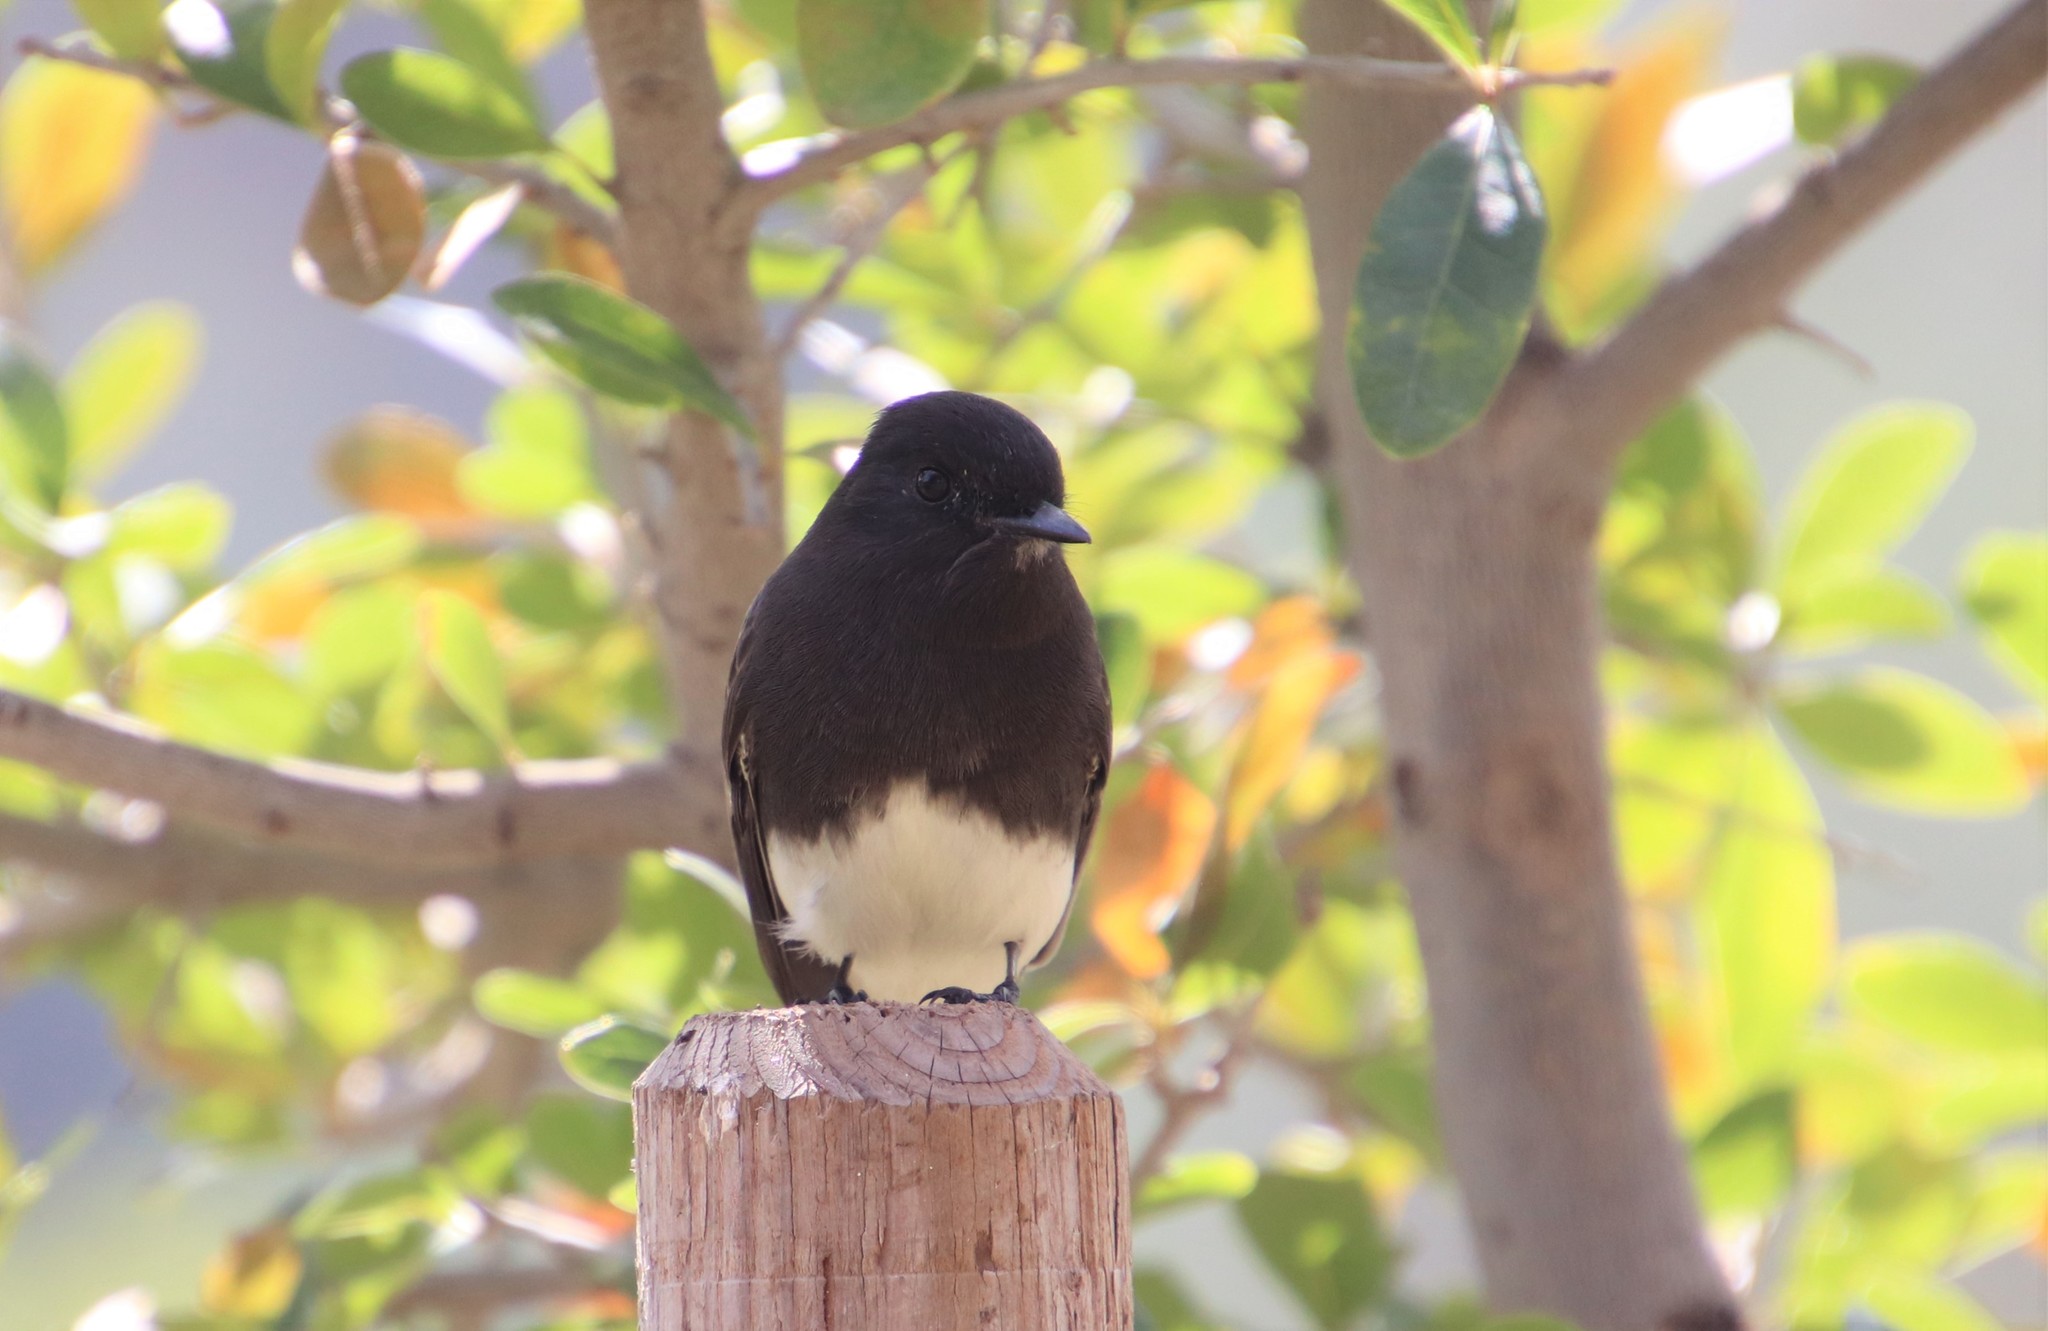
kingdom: Animalia
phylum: Chordata
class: Aves
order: Passeriformes
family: Tyrannidae
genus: Sayornis
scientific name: Sayornis nigricans
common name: Black phoebe
